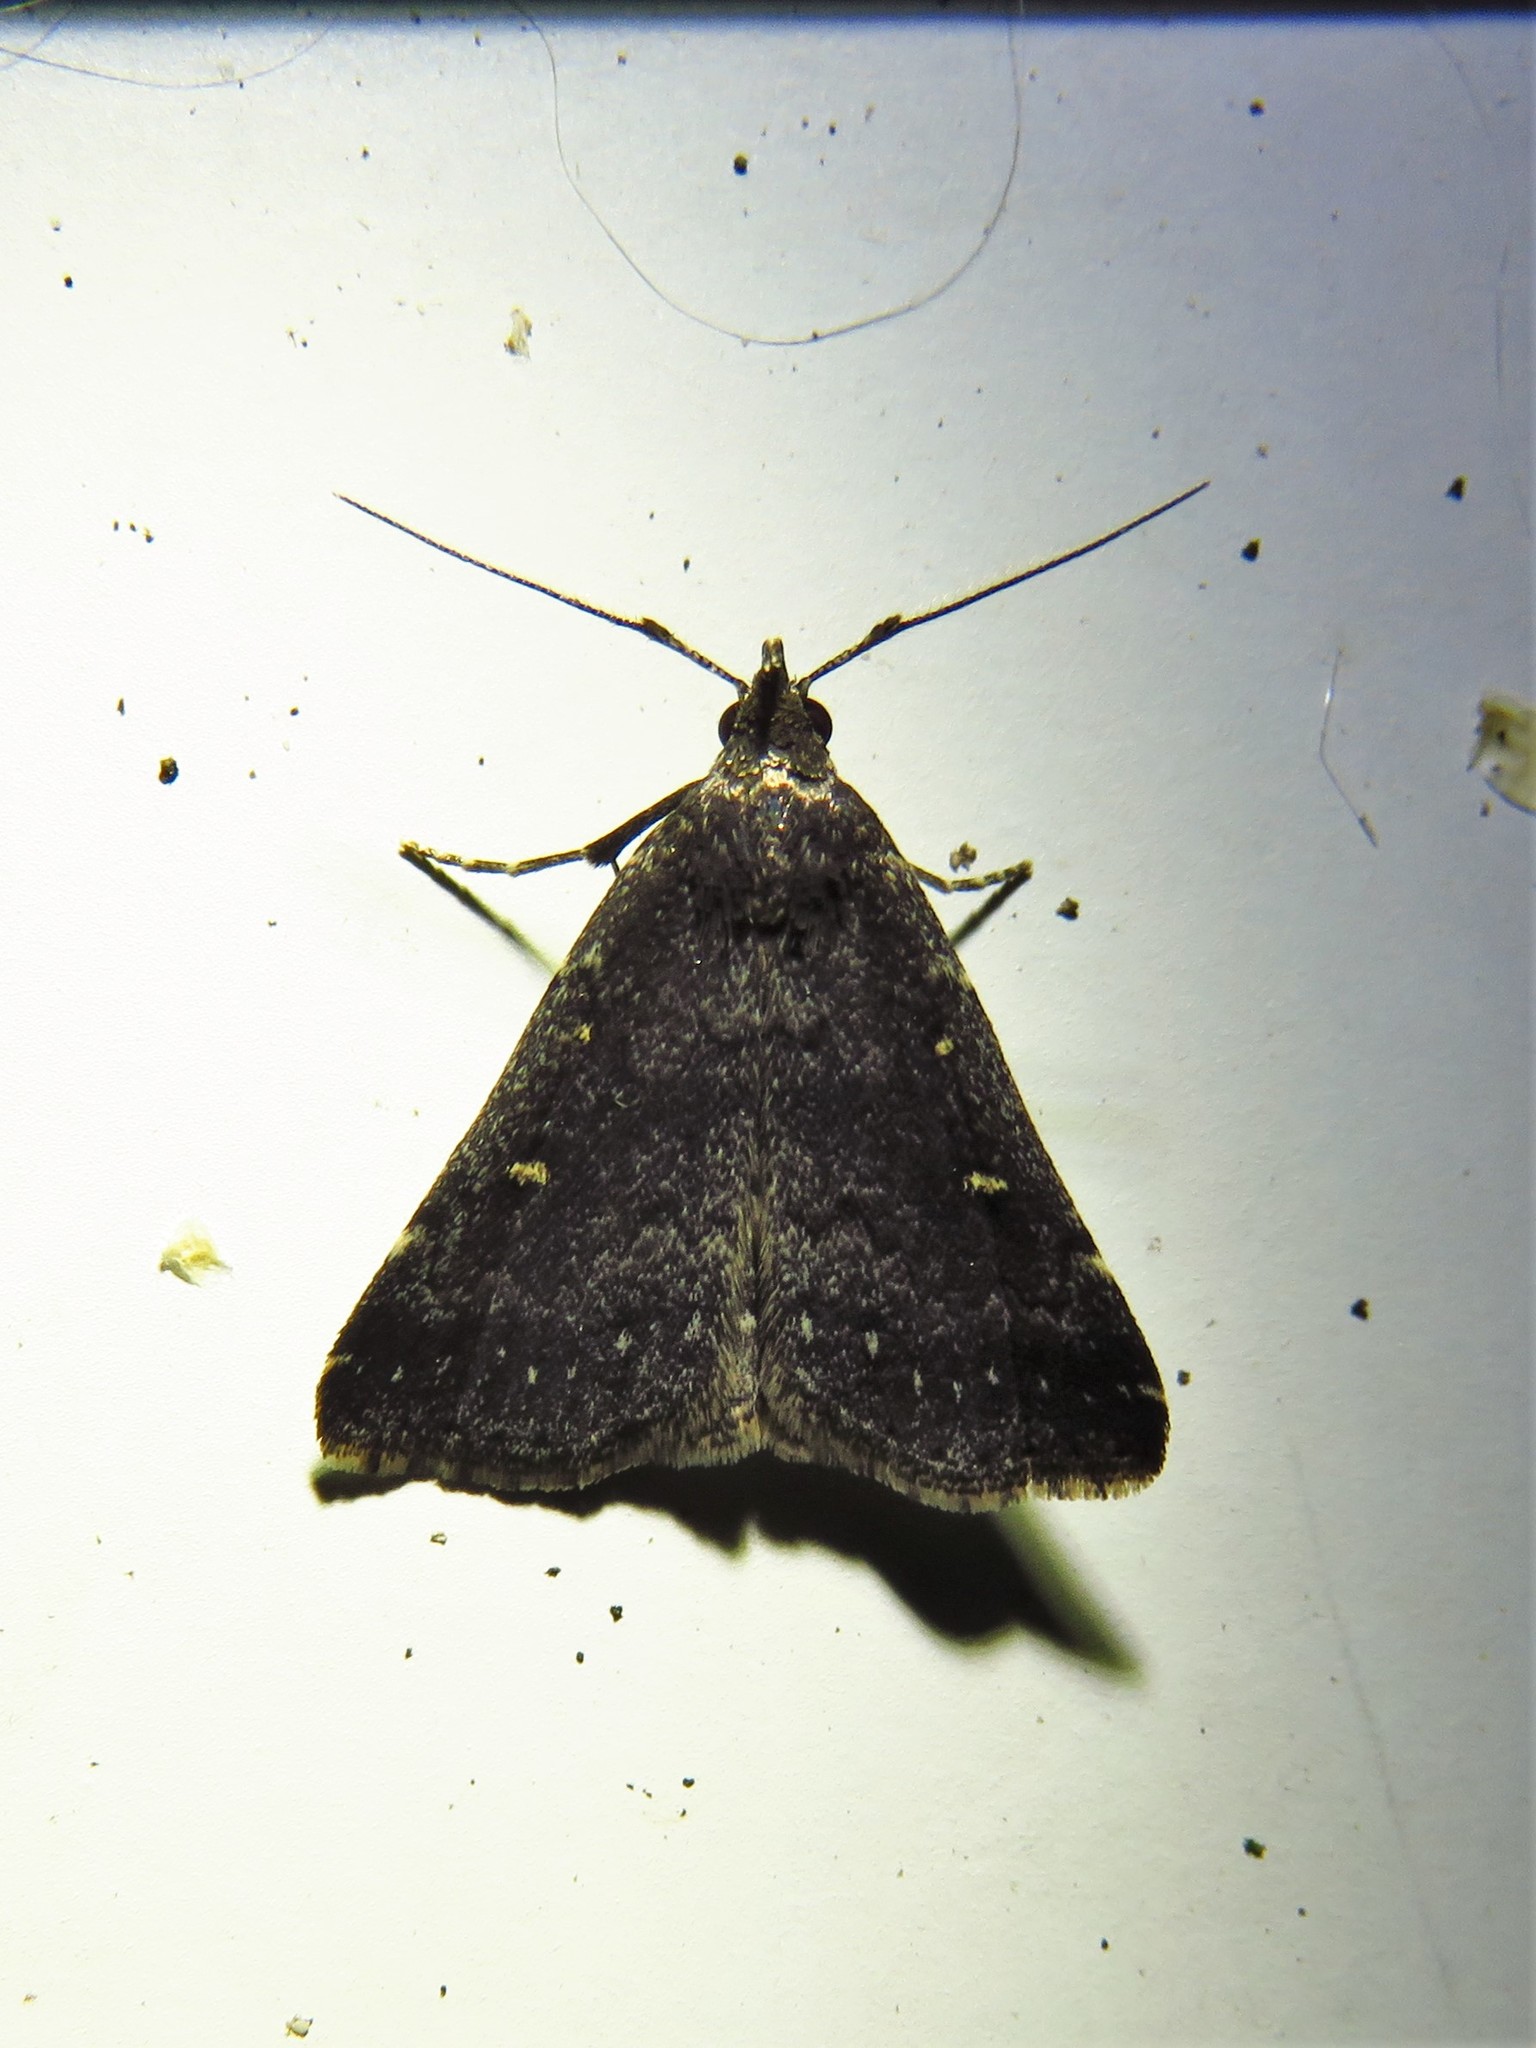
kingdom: Animalia
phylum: Arthropoda
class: Insecta
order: Lepidoptera
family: Erebidae
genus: Tetanolita
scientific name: Tetanolita mynesalis
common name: Smoky tetanolita moth
